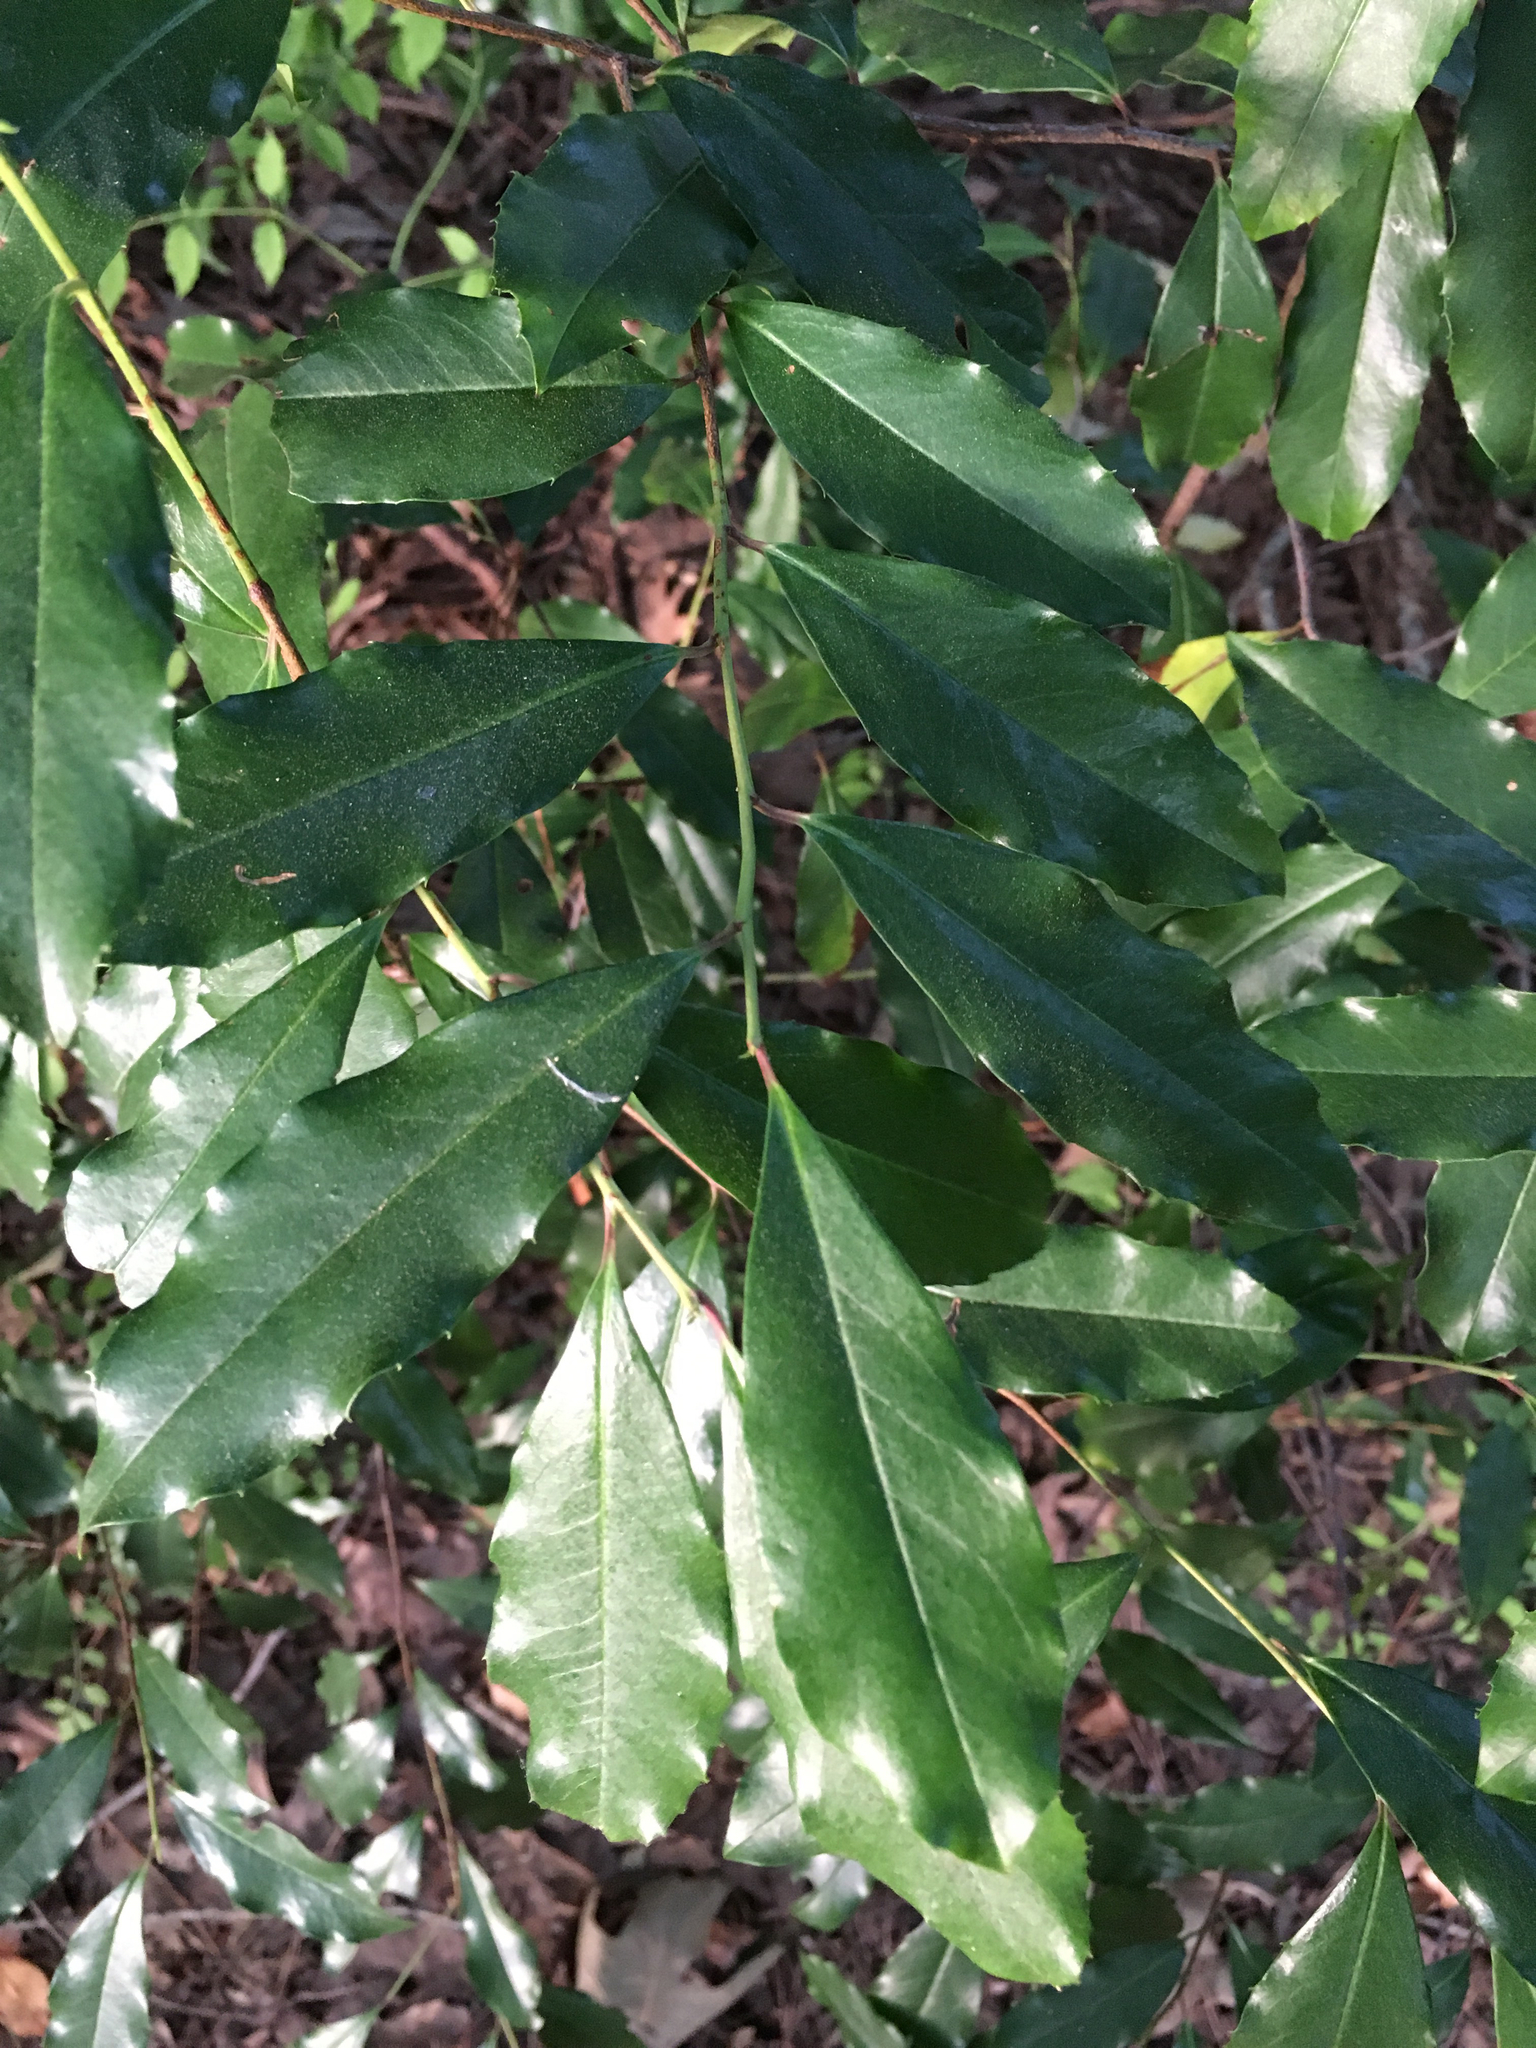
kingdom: Plantae
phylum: Tracheophyta
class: Magnoliopsida
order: Rosales
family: Rosaceae
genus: Prunus
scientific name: Prunus caroliniana
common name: Carolina laurel cherry
